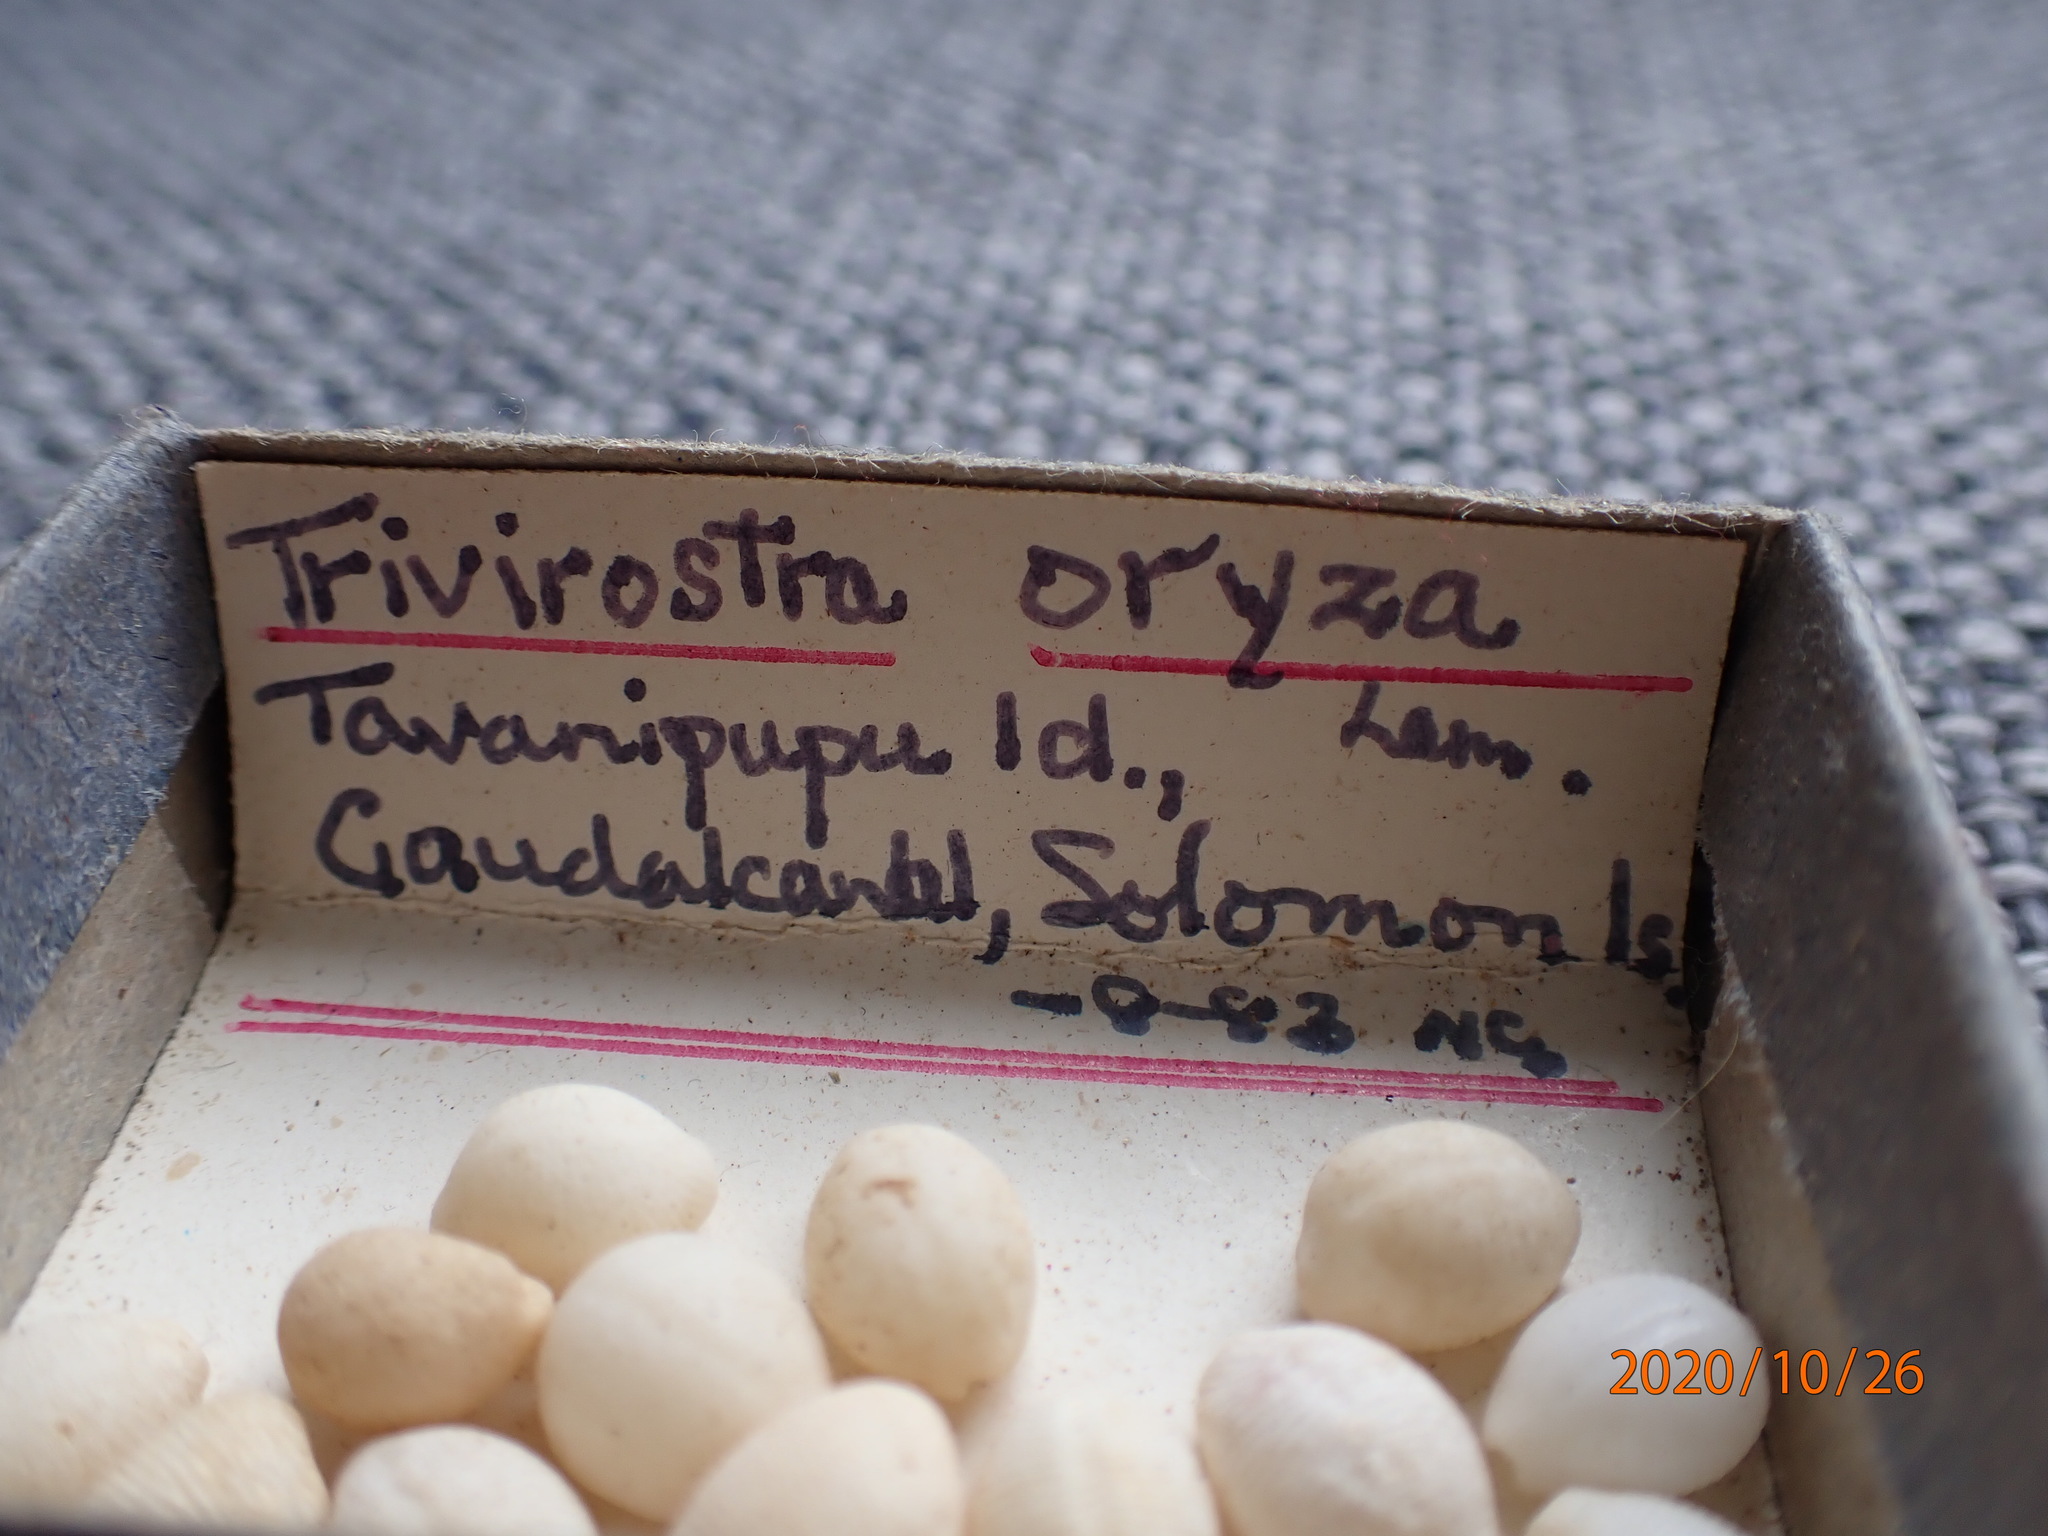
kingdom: Animalia
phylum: Mollusca
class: Gastropoda
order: Littorinimorpha
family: Triviidae
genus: Trivirostra
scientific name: Trivirostra oryza
